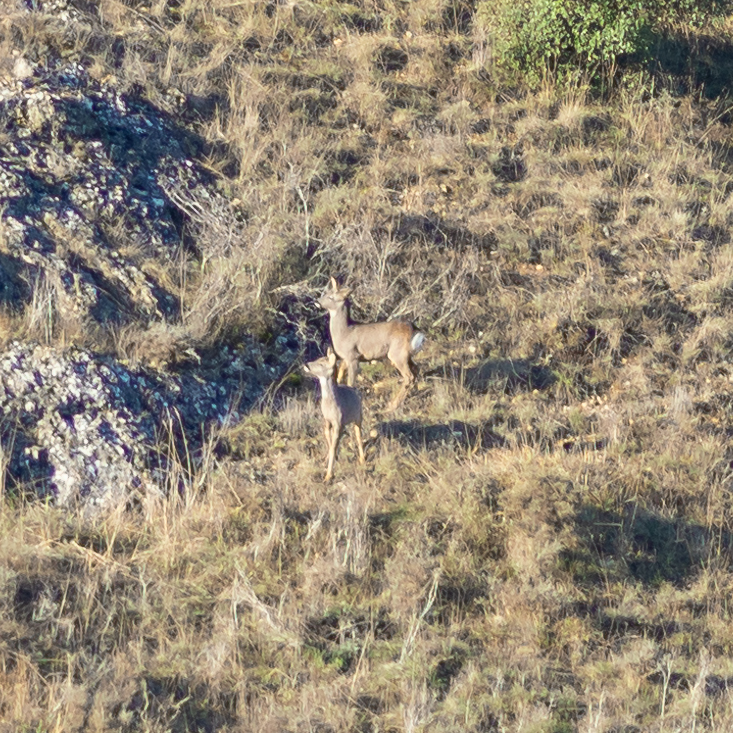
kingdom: Animalia
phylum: Chordata
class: Mammalia
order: Artiodactyla
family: Cervidae
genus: Capreolus
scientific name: Capreolus capreolus
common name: Western roe deer
